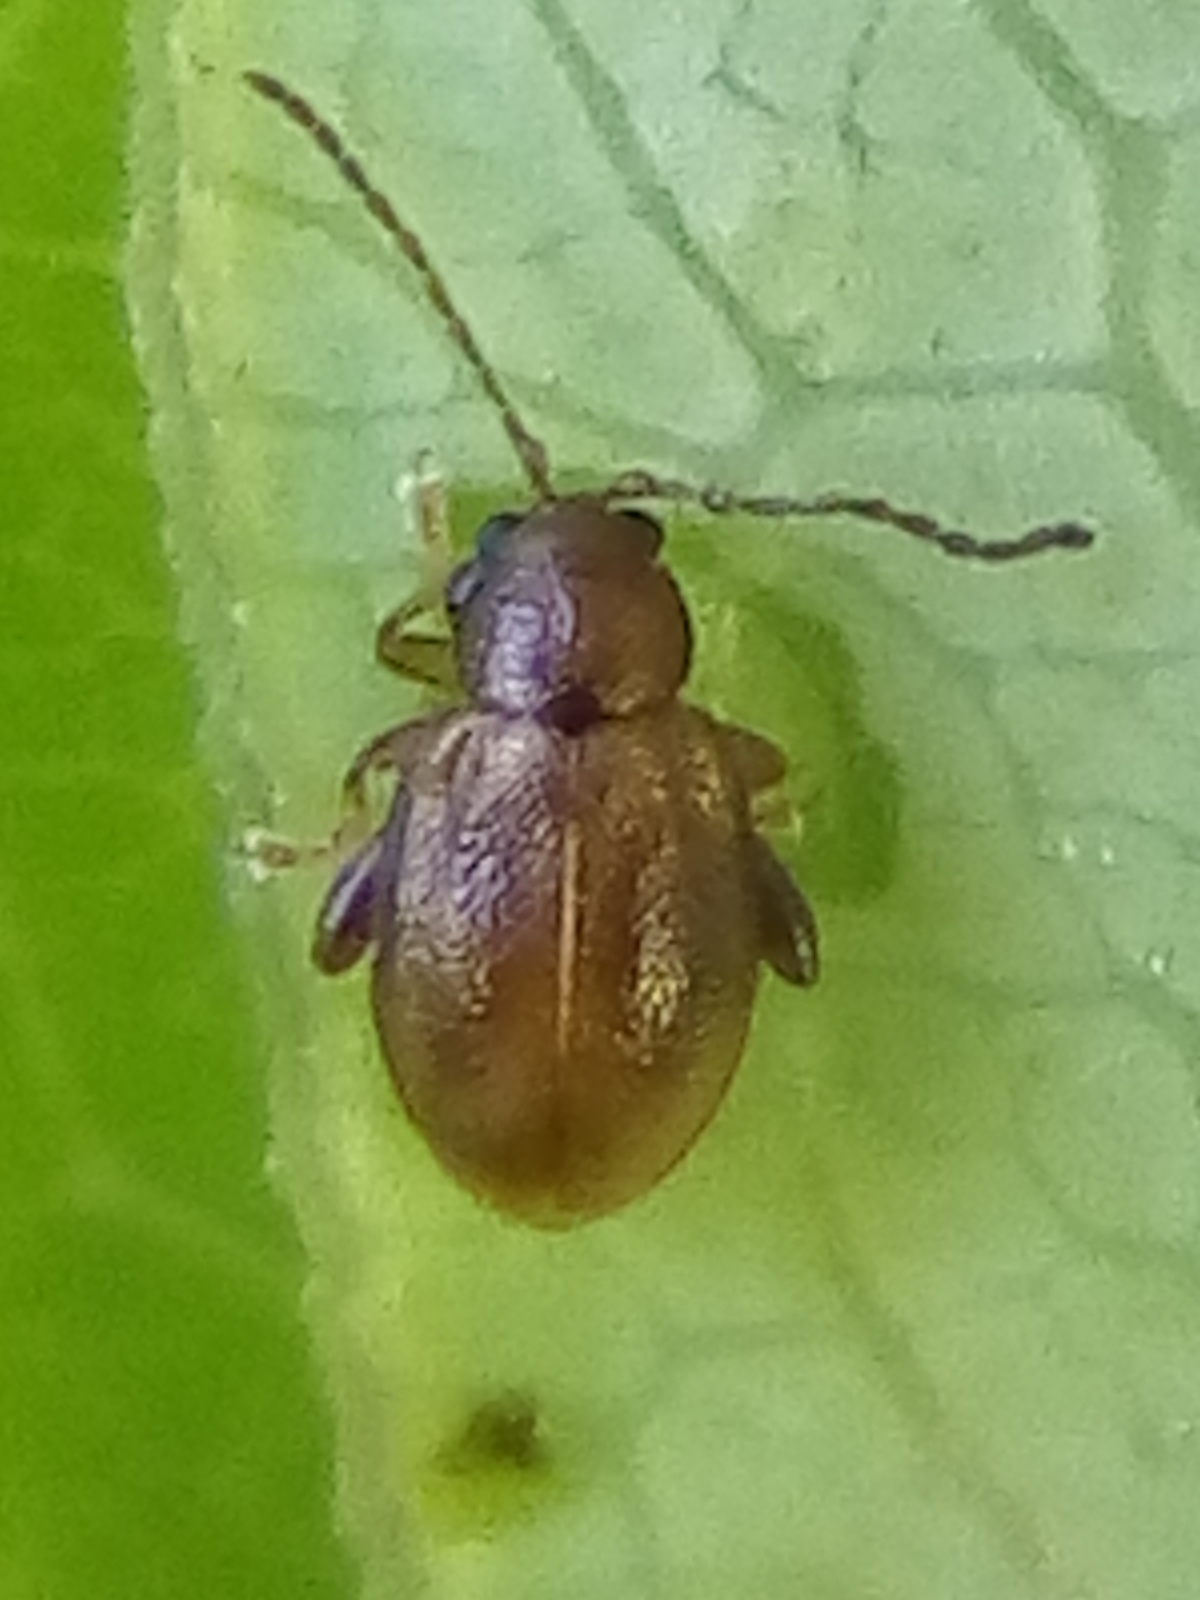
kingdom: Animalia
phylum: Arthropoda
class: Insecta
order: Coleoptera
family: Chrysomelidae
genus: Trachytetra
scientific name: Trachytetra
